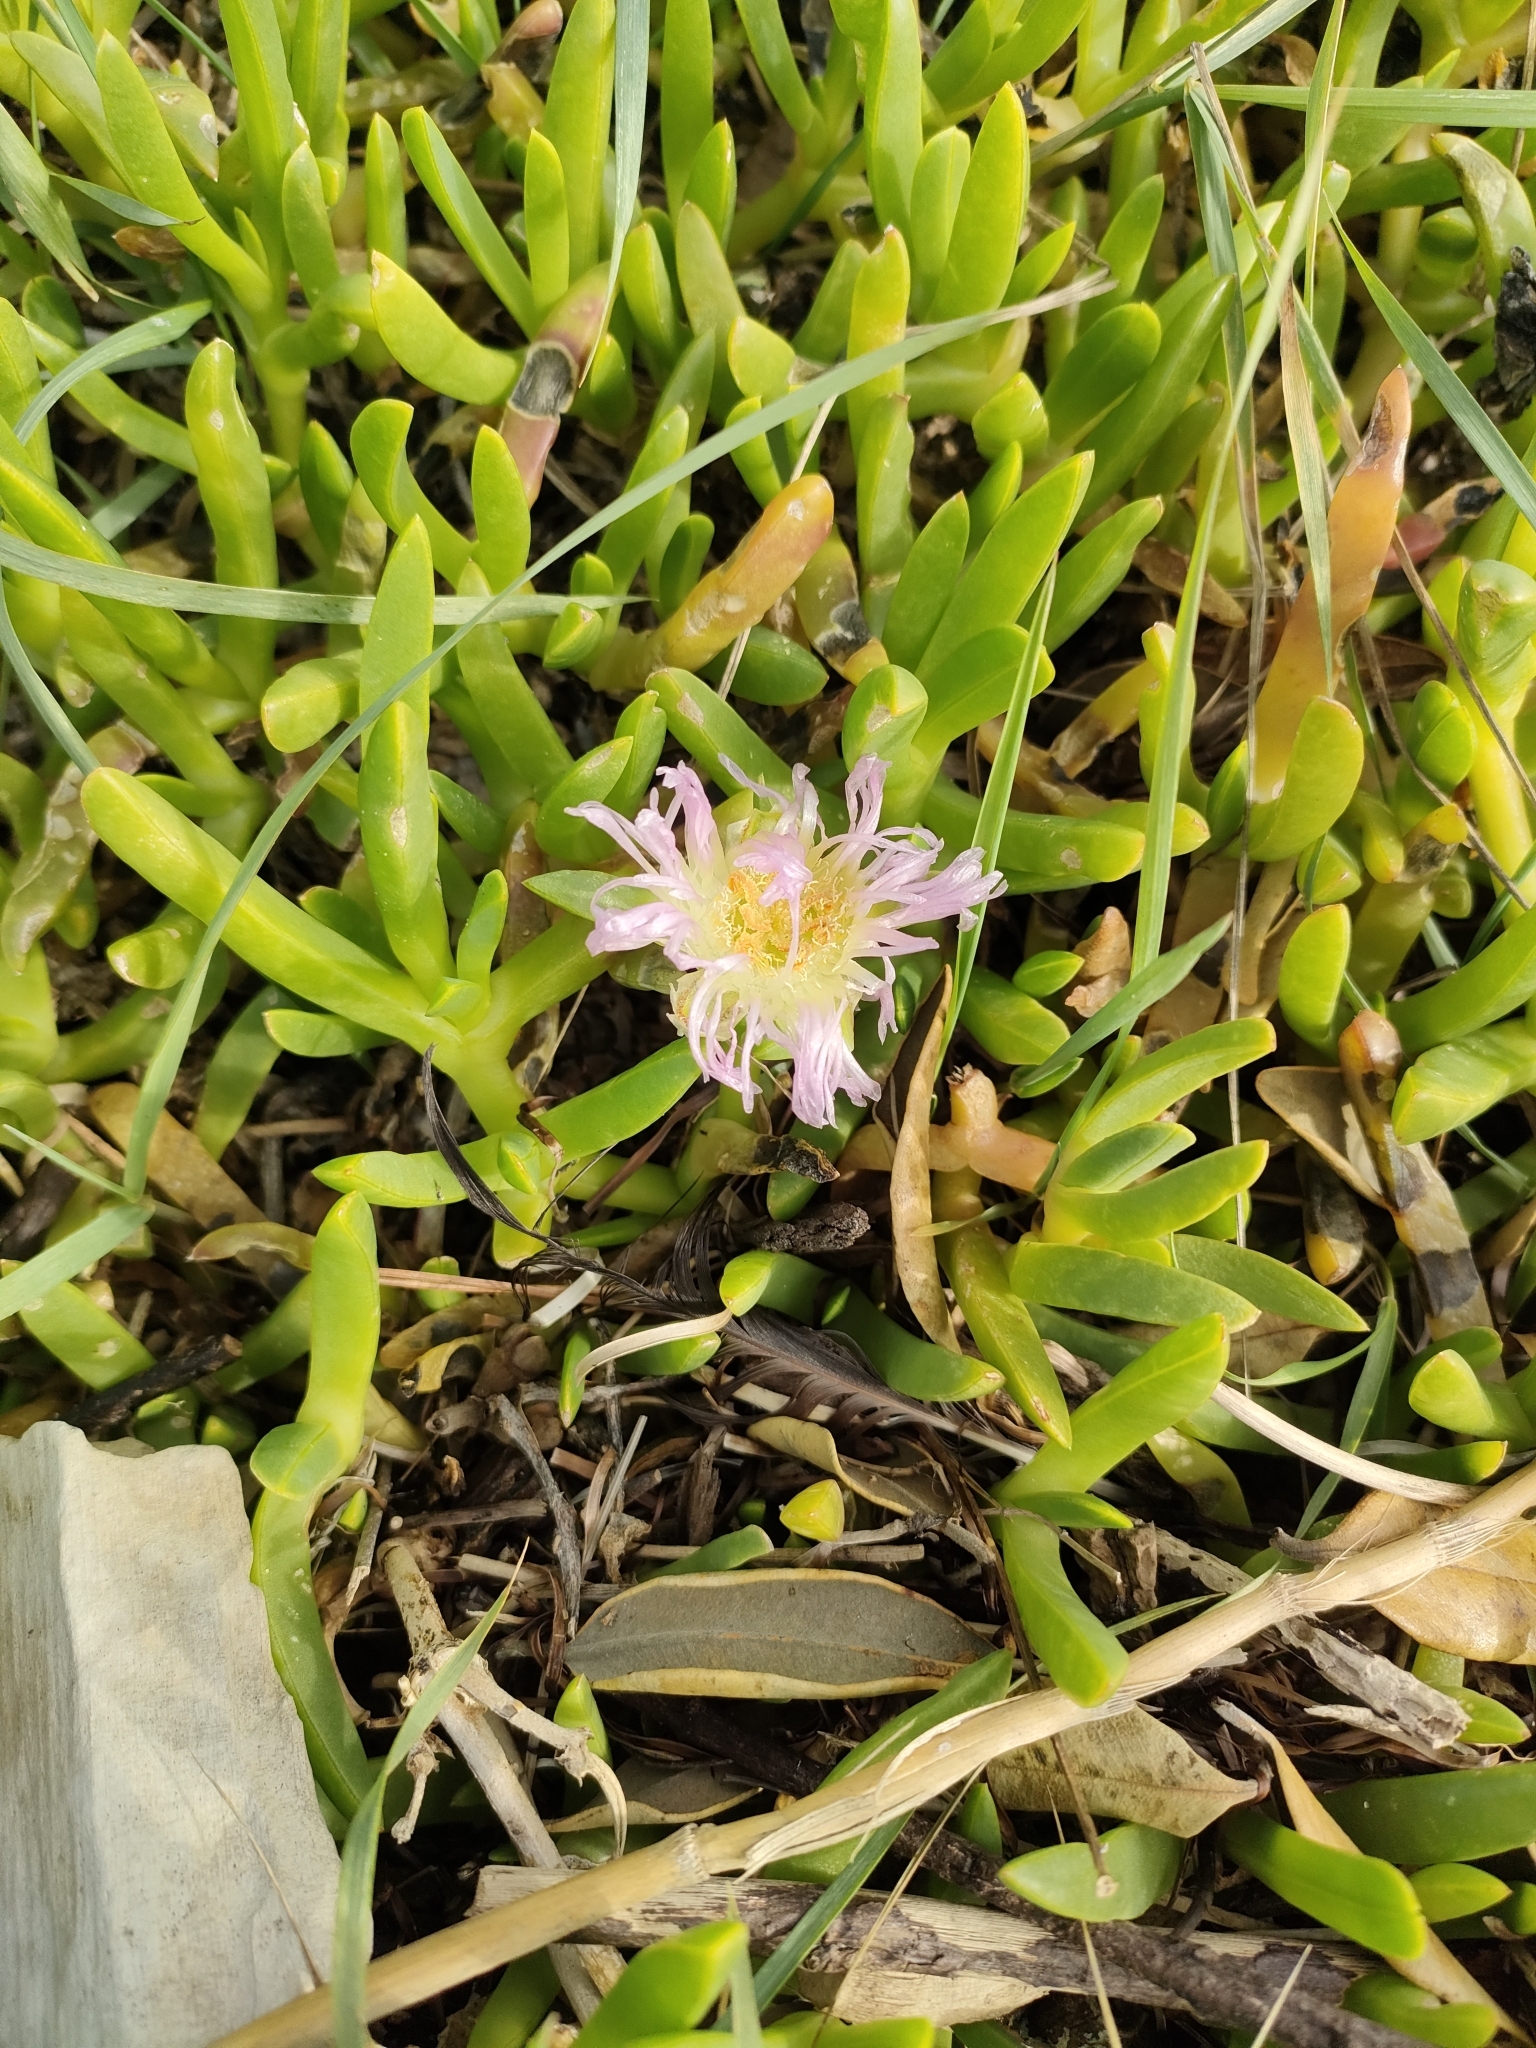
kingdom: Plantae
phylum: Tracheophyta
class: Magnoliopsida
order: Caryophyllales
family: Aizoaceae
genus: Disphyma
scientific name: Disphyma australe
